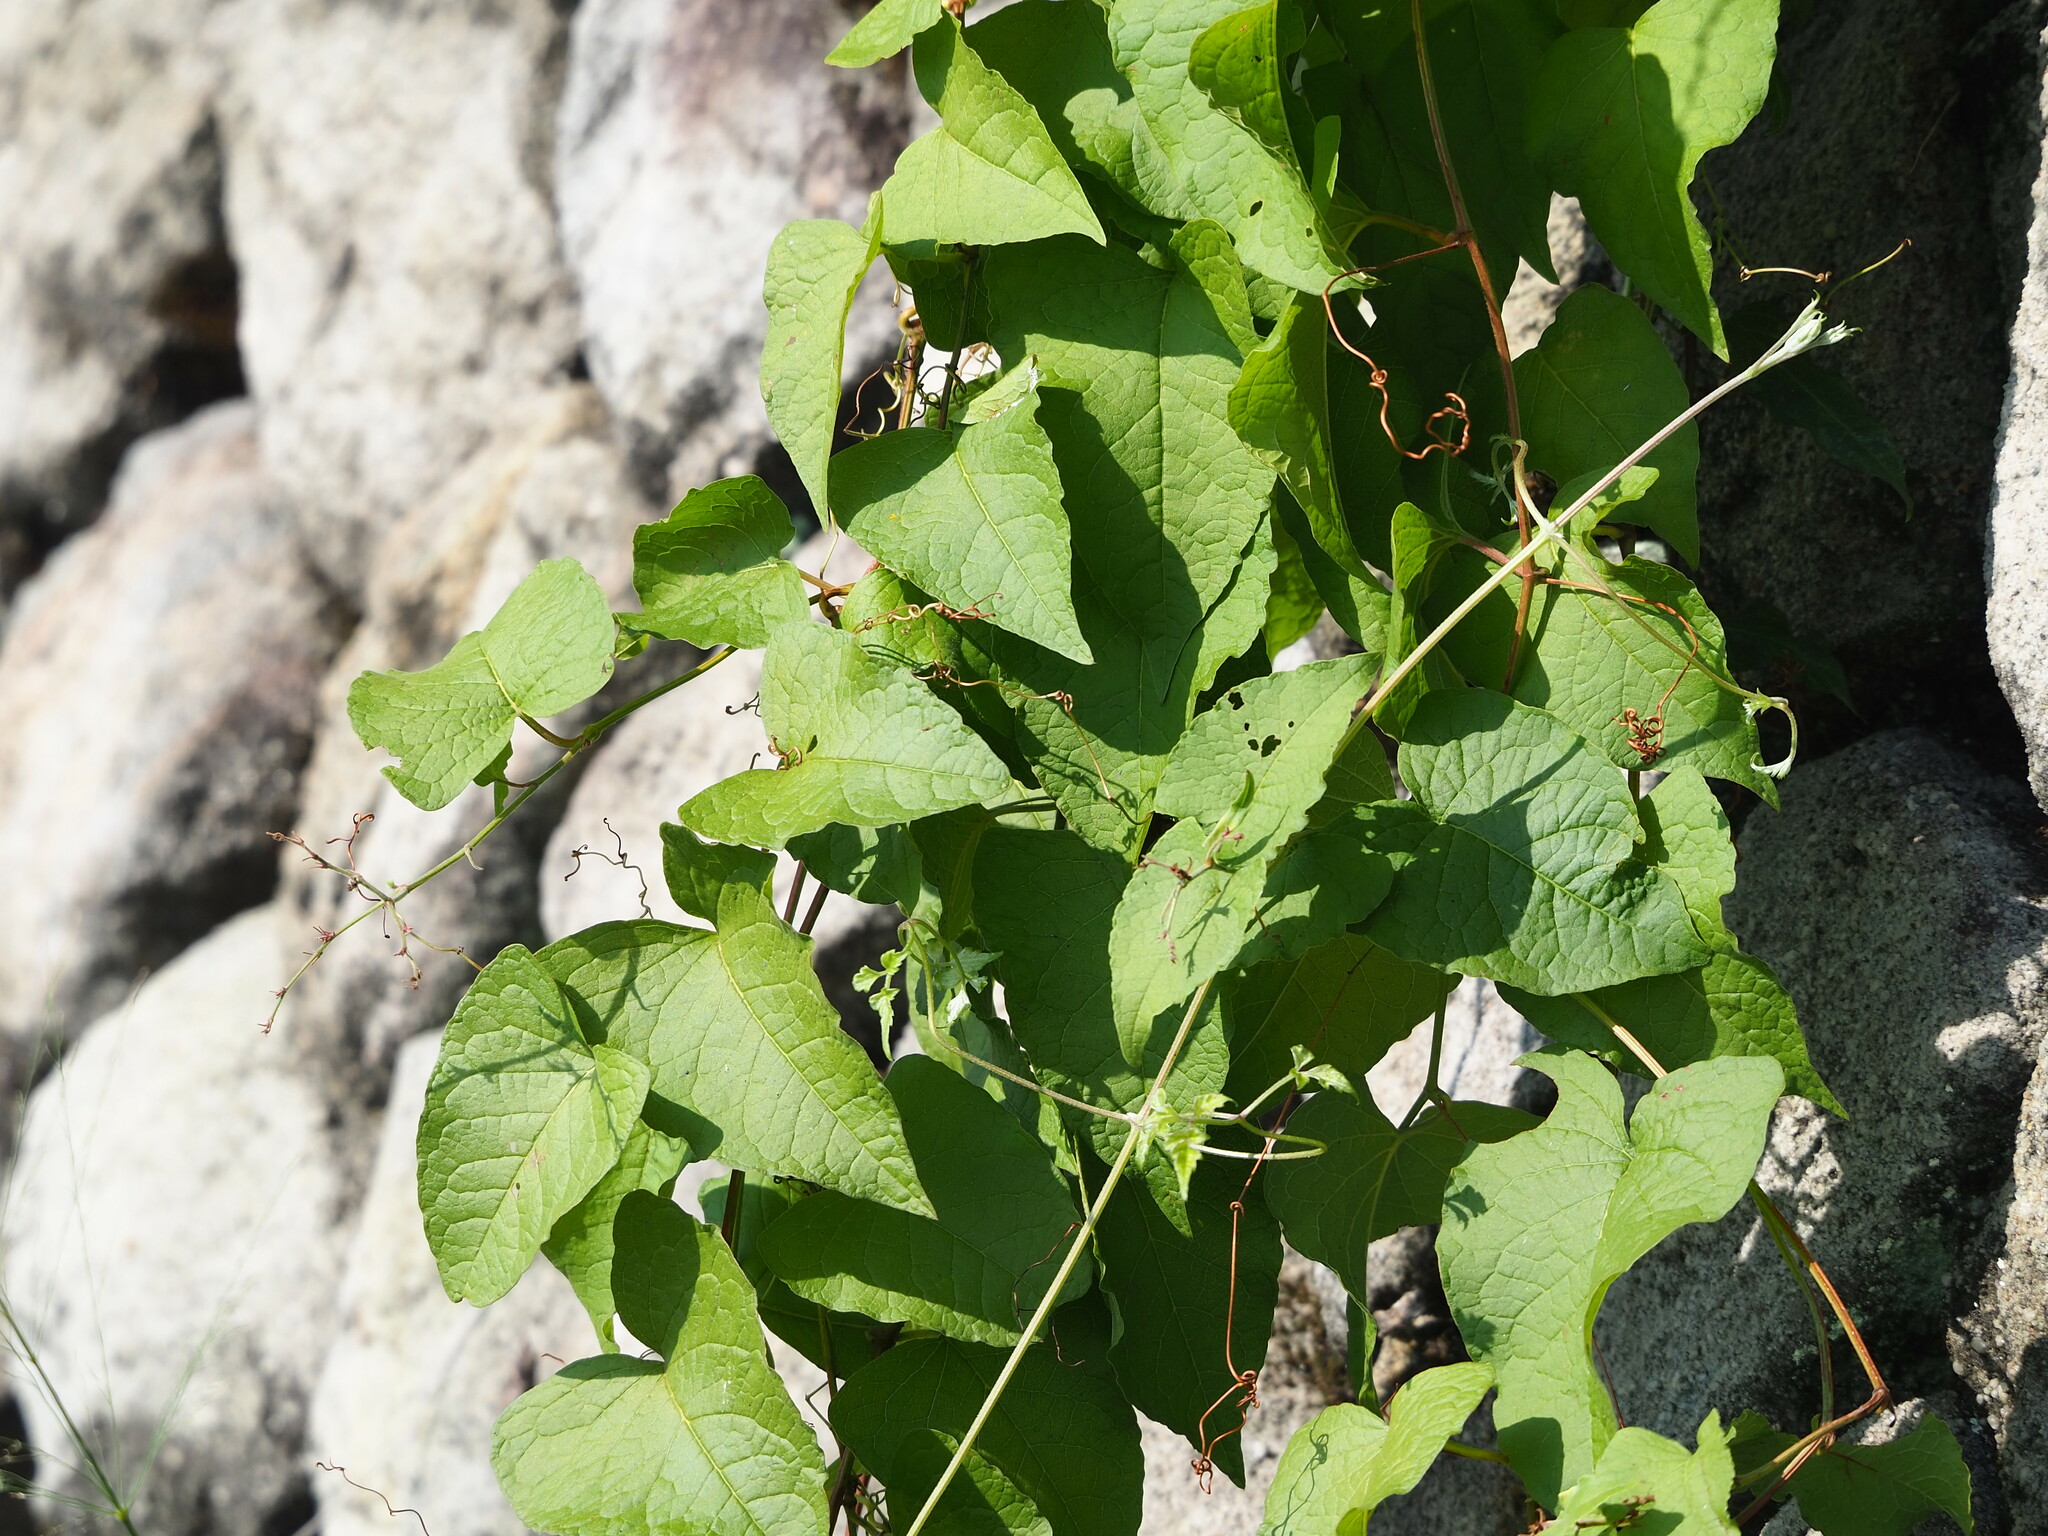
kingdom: Plantae
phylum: Tracheophyta
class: Magnoliopsida
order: Caryophyllales
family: Polygonaceae
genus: Antigonon
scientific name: Antigonon leptopus
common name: Coral vine
